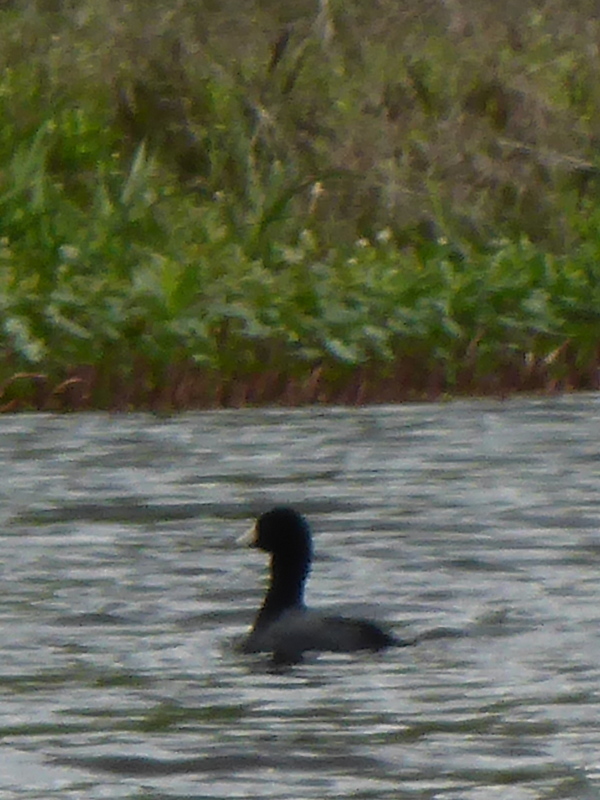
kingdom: Animalia
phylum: Chordata
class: Aves
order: Gruiformes
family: Rallidae
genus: Fulica
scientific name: Fulica americana
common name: American coot
